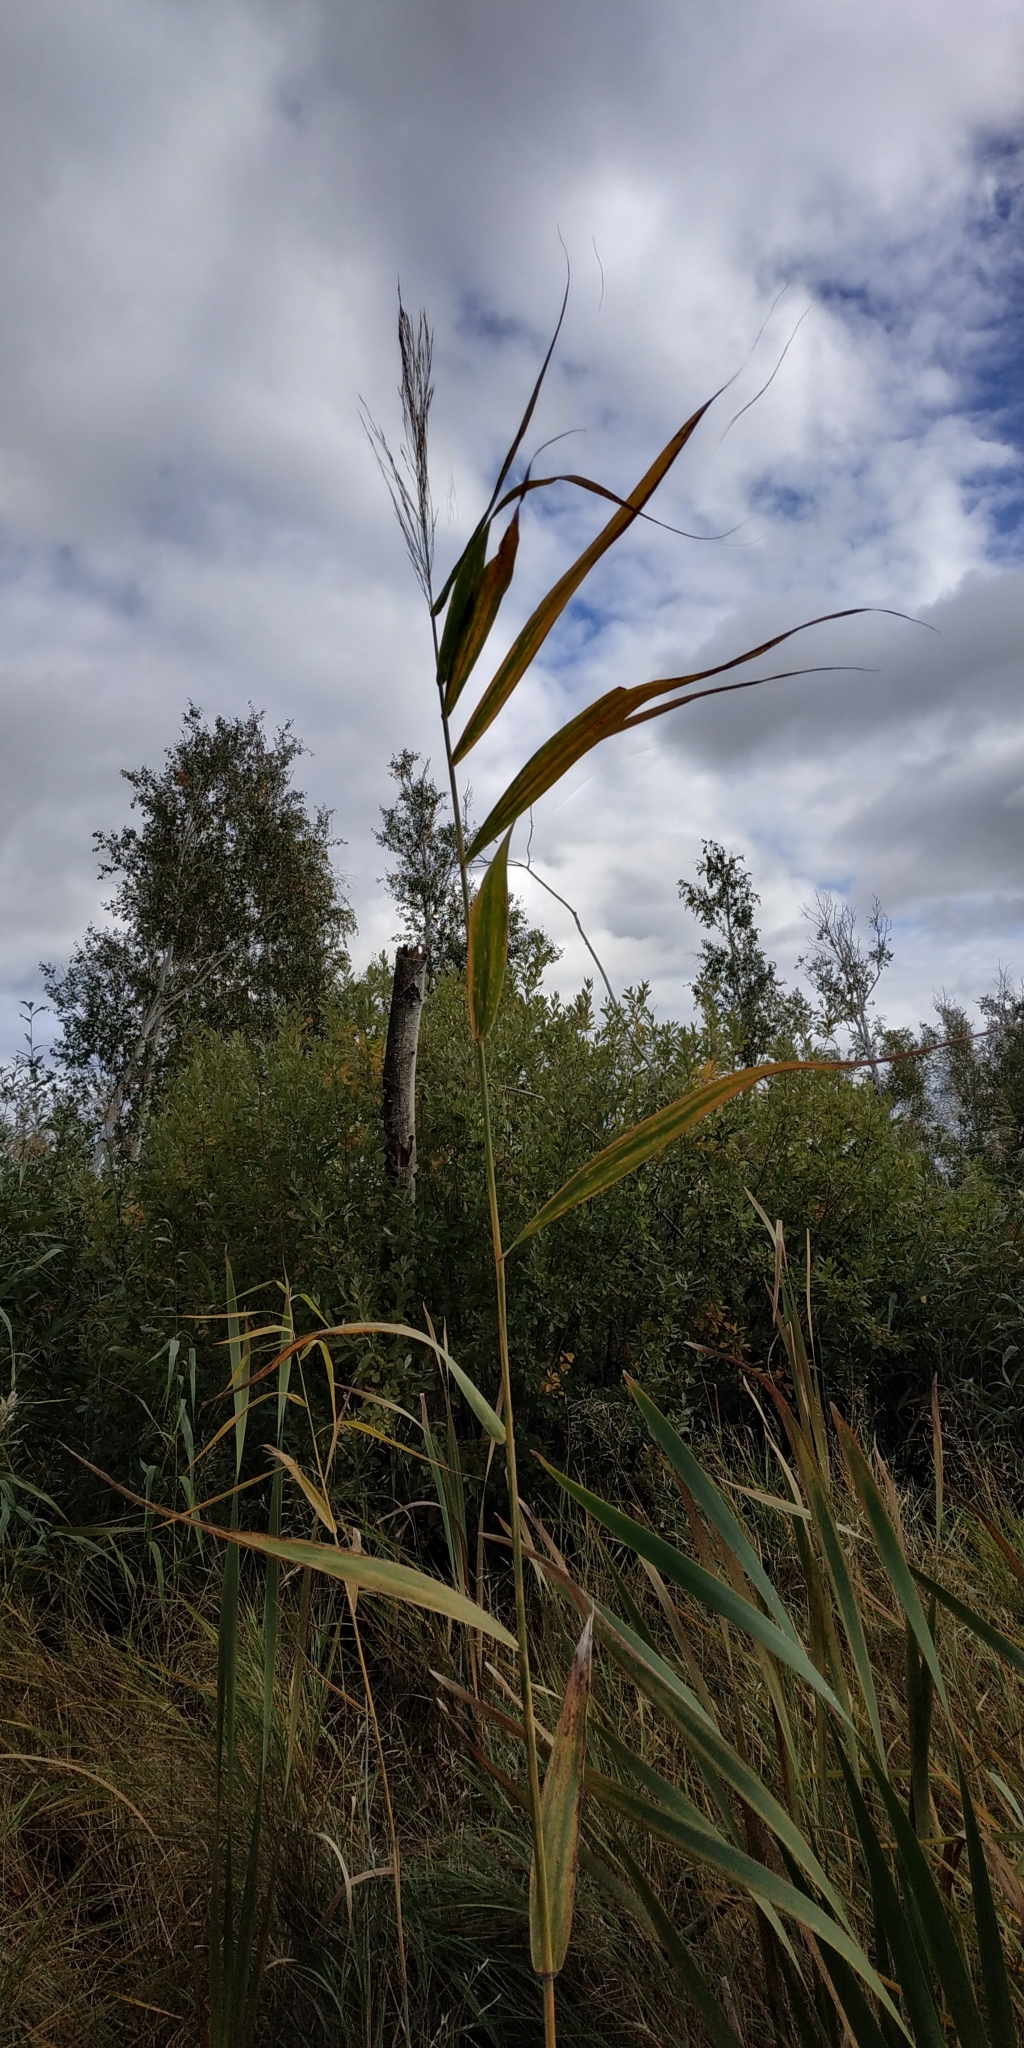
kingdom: Plantae
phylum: Tracheophyta
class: Liliopsida
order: Poales
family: Poaceae
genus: Phragmites
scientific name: Phragmites australis
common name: Common reed
